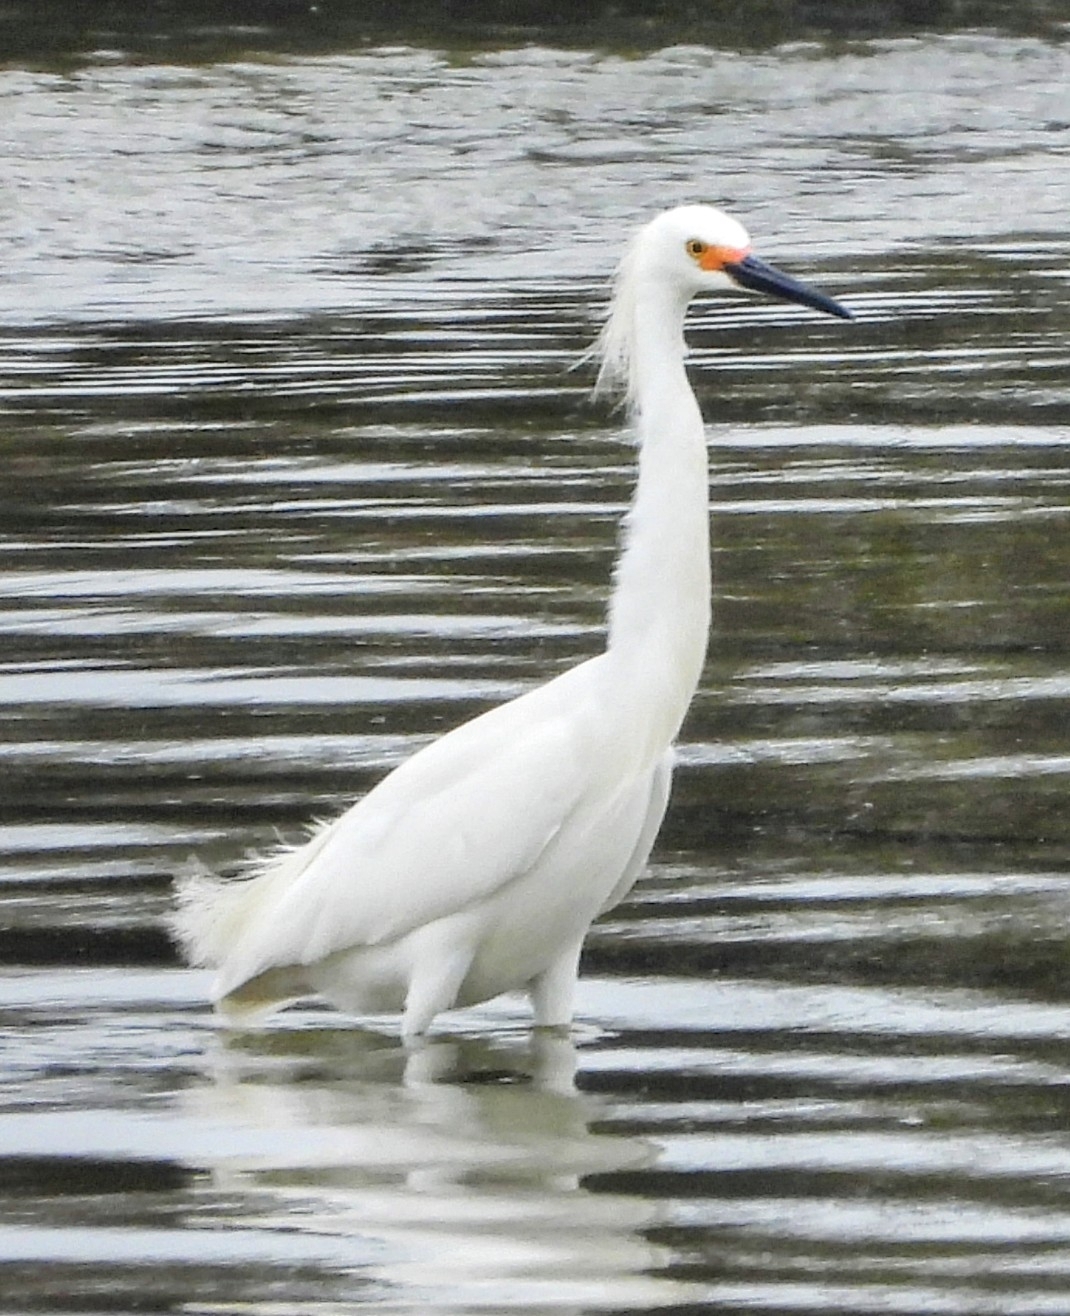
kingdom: Animalia
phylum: Chordata
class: Aves
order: Pelecaniformes
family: Ardeidae
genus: Egretta
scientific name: Egretta thula
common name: Snowy egret
